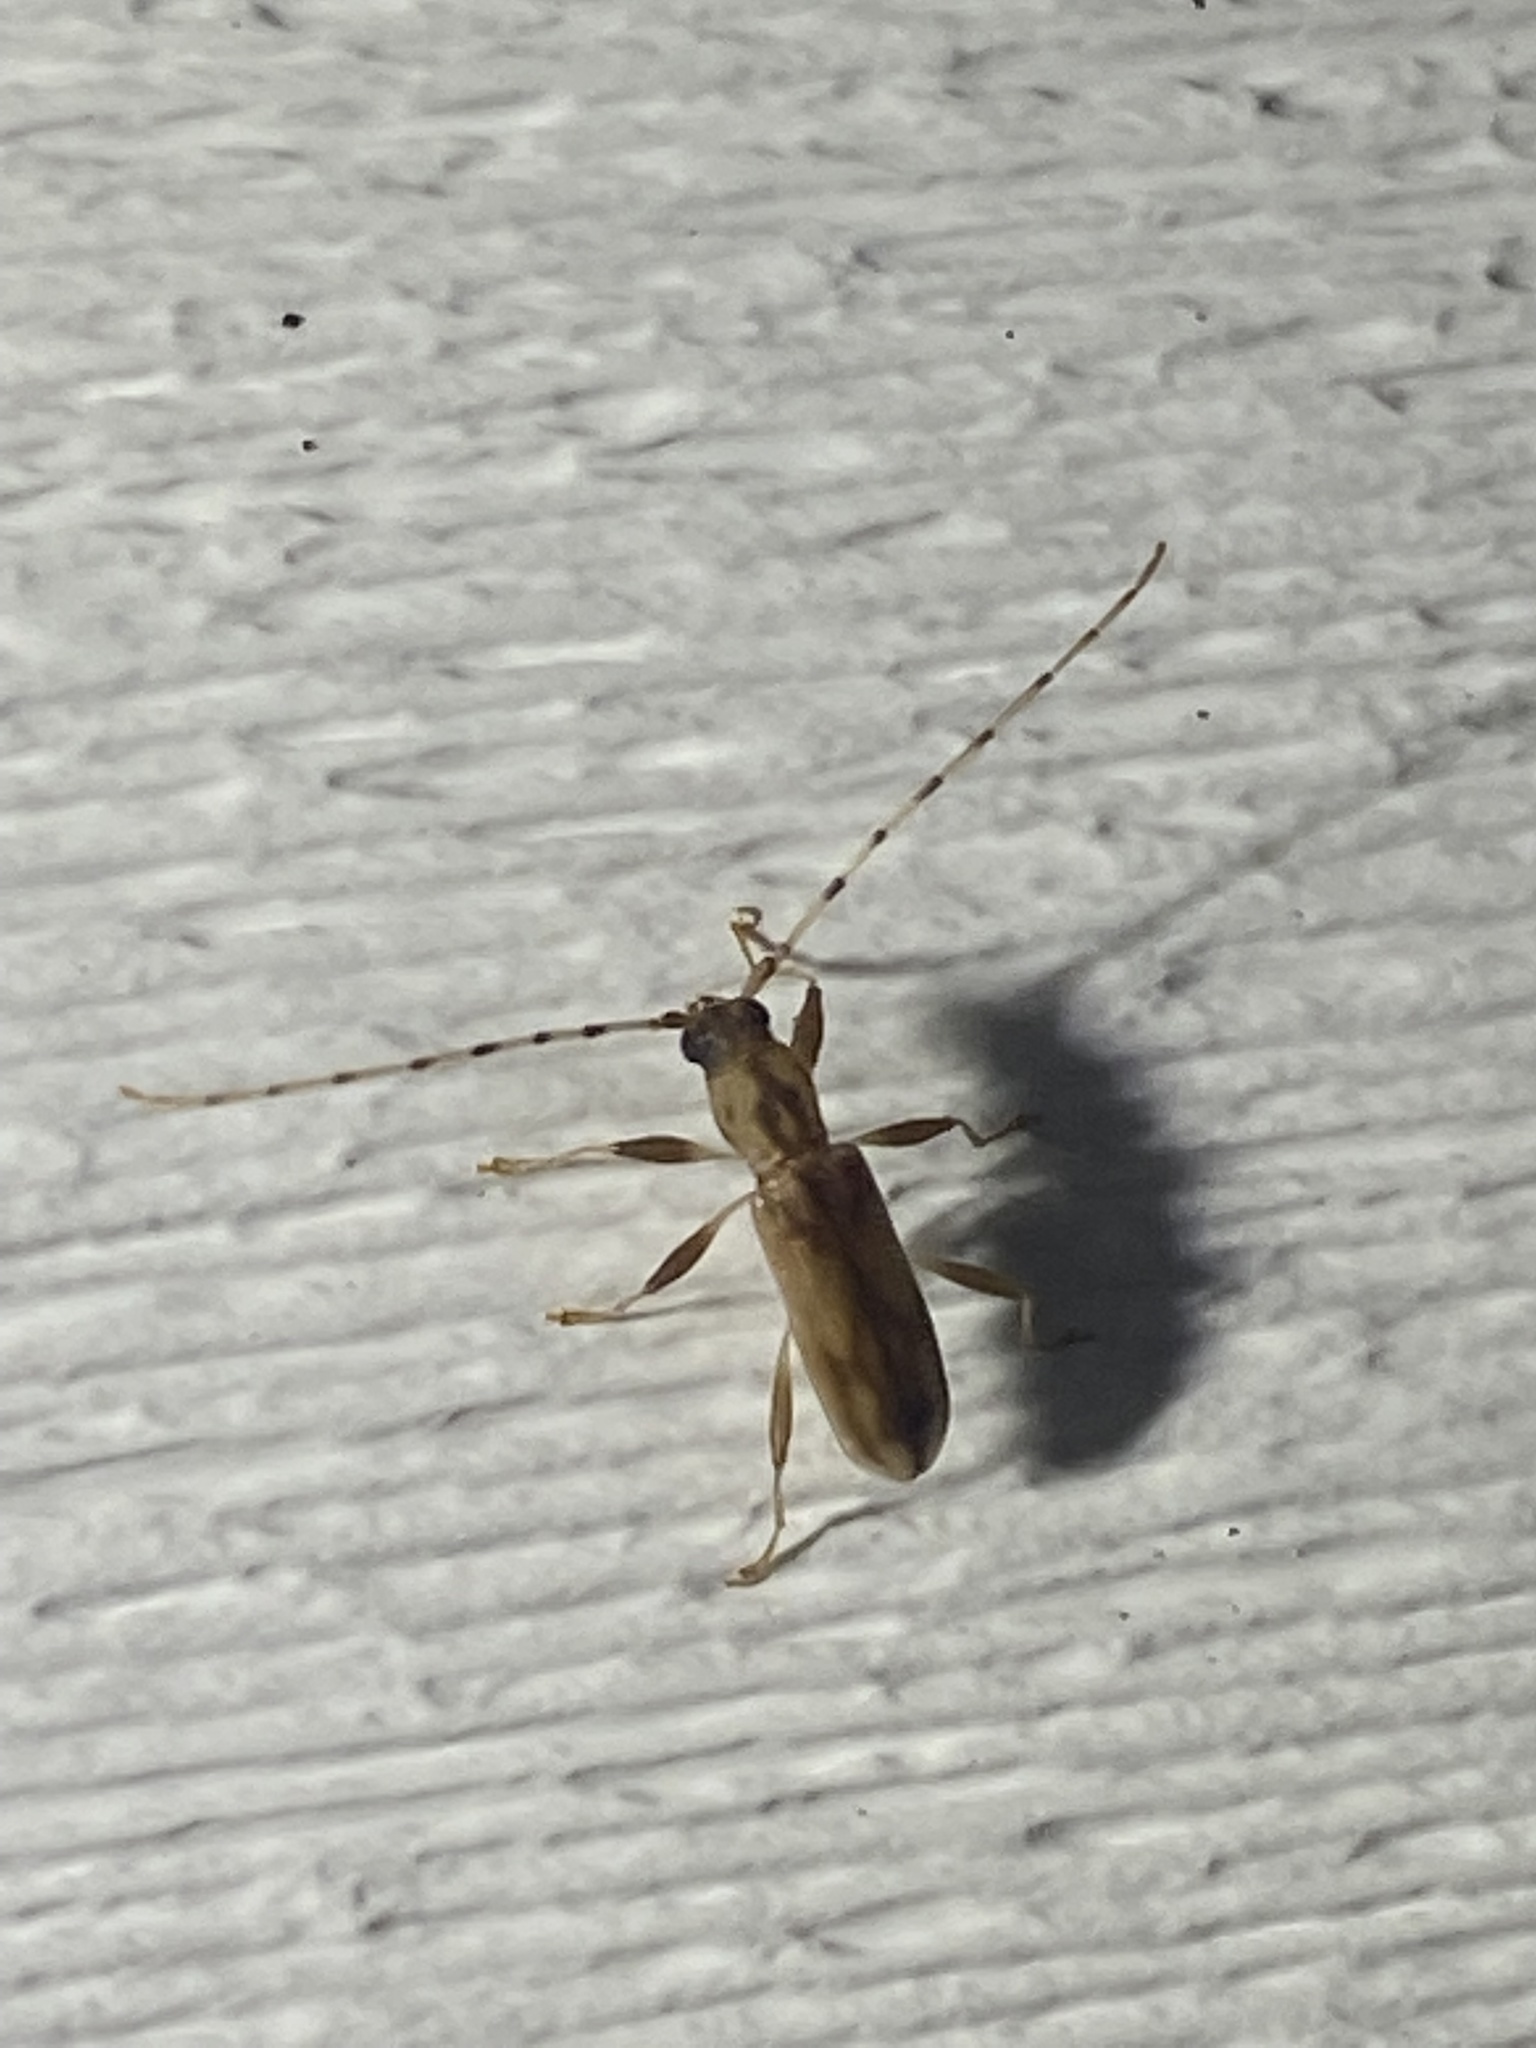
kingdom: Animalia
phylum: Arthropoda
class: Insecta
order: Coleoptera
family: Cerambycidae
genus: Curius
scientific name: Curius dentatus
